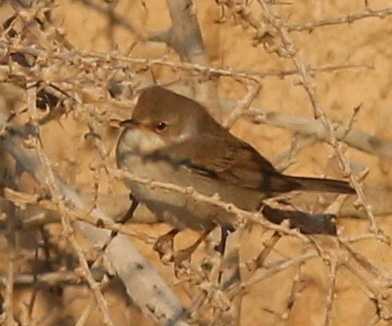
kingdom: Animalia
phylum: Chordata
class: Aves
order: Passeriformes
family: Sylviidae
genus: Sylvia
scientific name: Sylvia communis
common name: Common whitethroat
